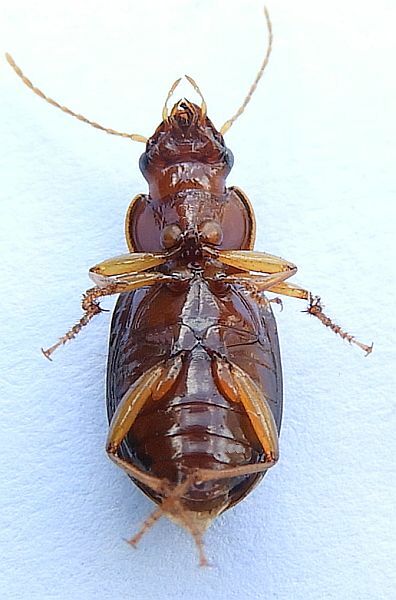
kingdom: Animalia
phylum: Arthropoda
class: Insecta
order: Coleoptera
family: Carabidae
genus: Trichotichnus
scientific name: Trichotichnus vulpeculus
